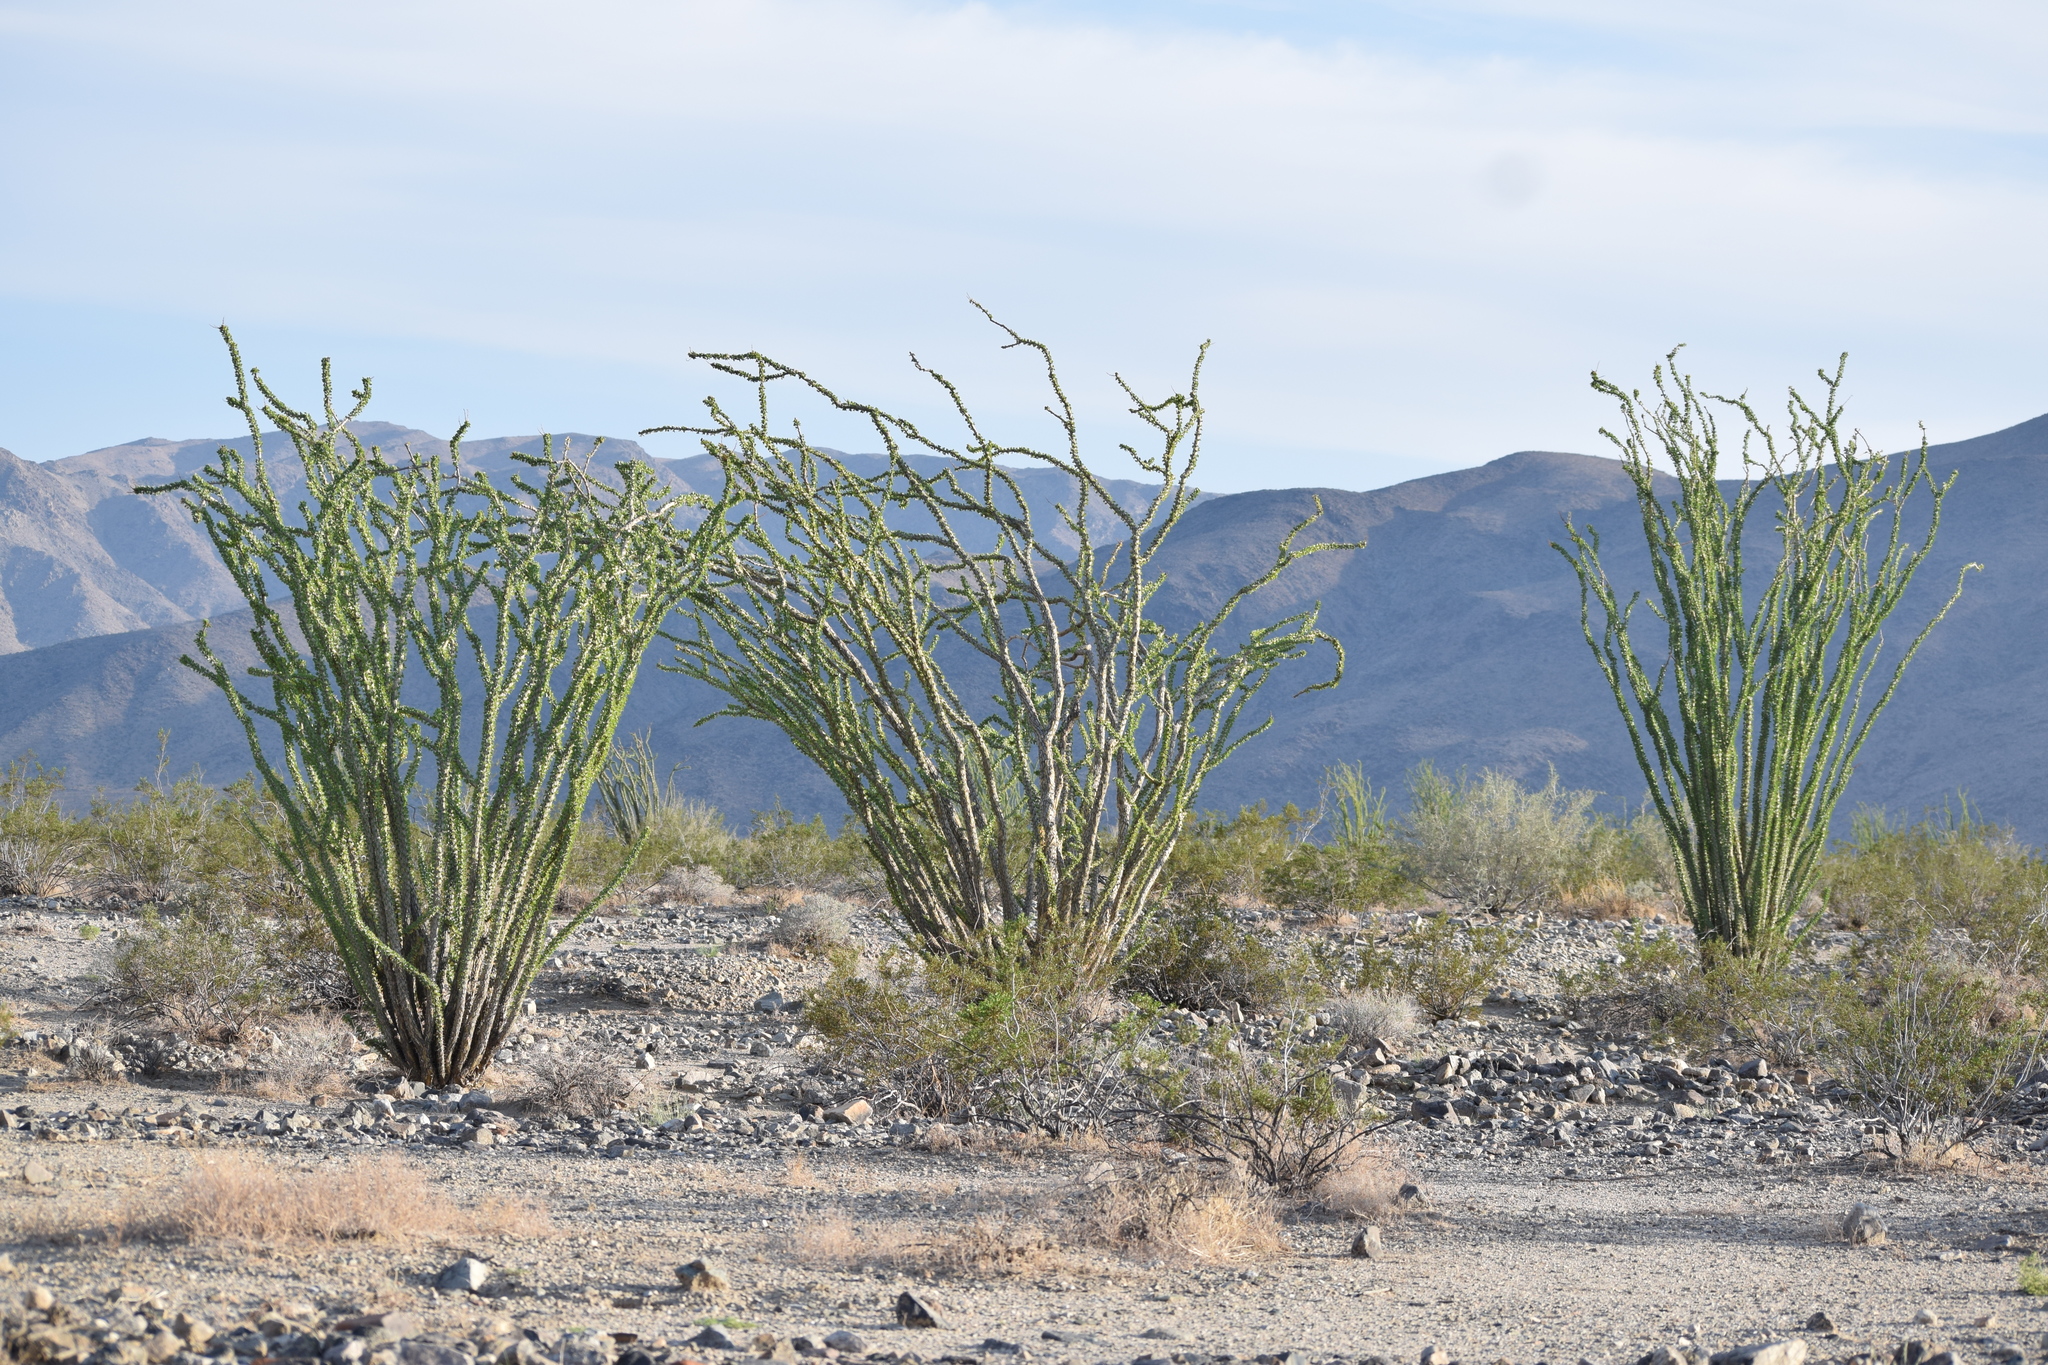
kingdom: Plantae
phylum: Tracheophyta
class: Magnoliopsida
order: Ericales
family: Fouquieriaceae
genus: Fouquieria
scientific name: Fouquieria splendens
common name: Vine-cactus
